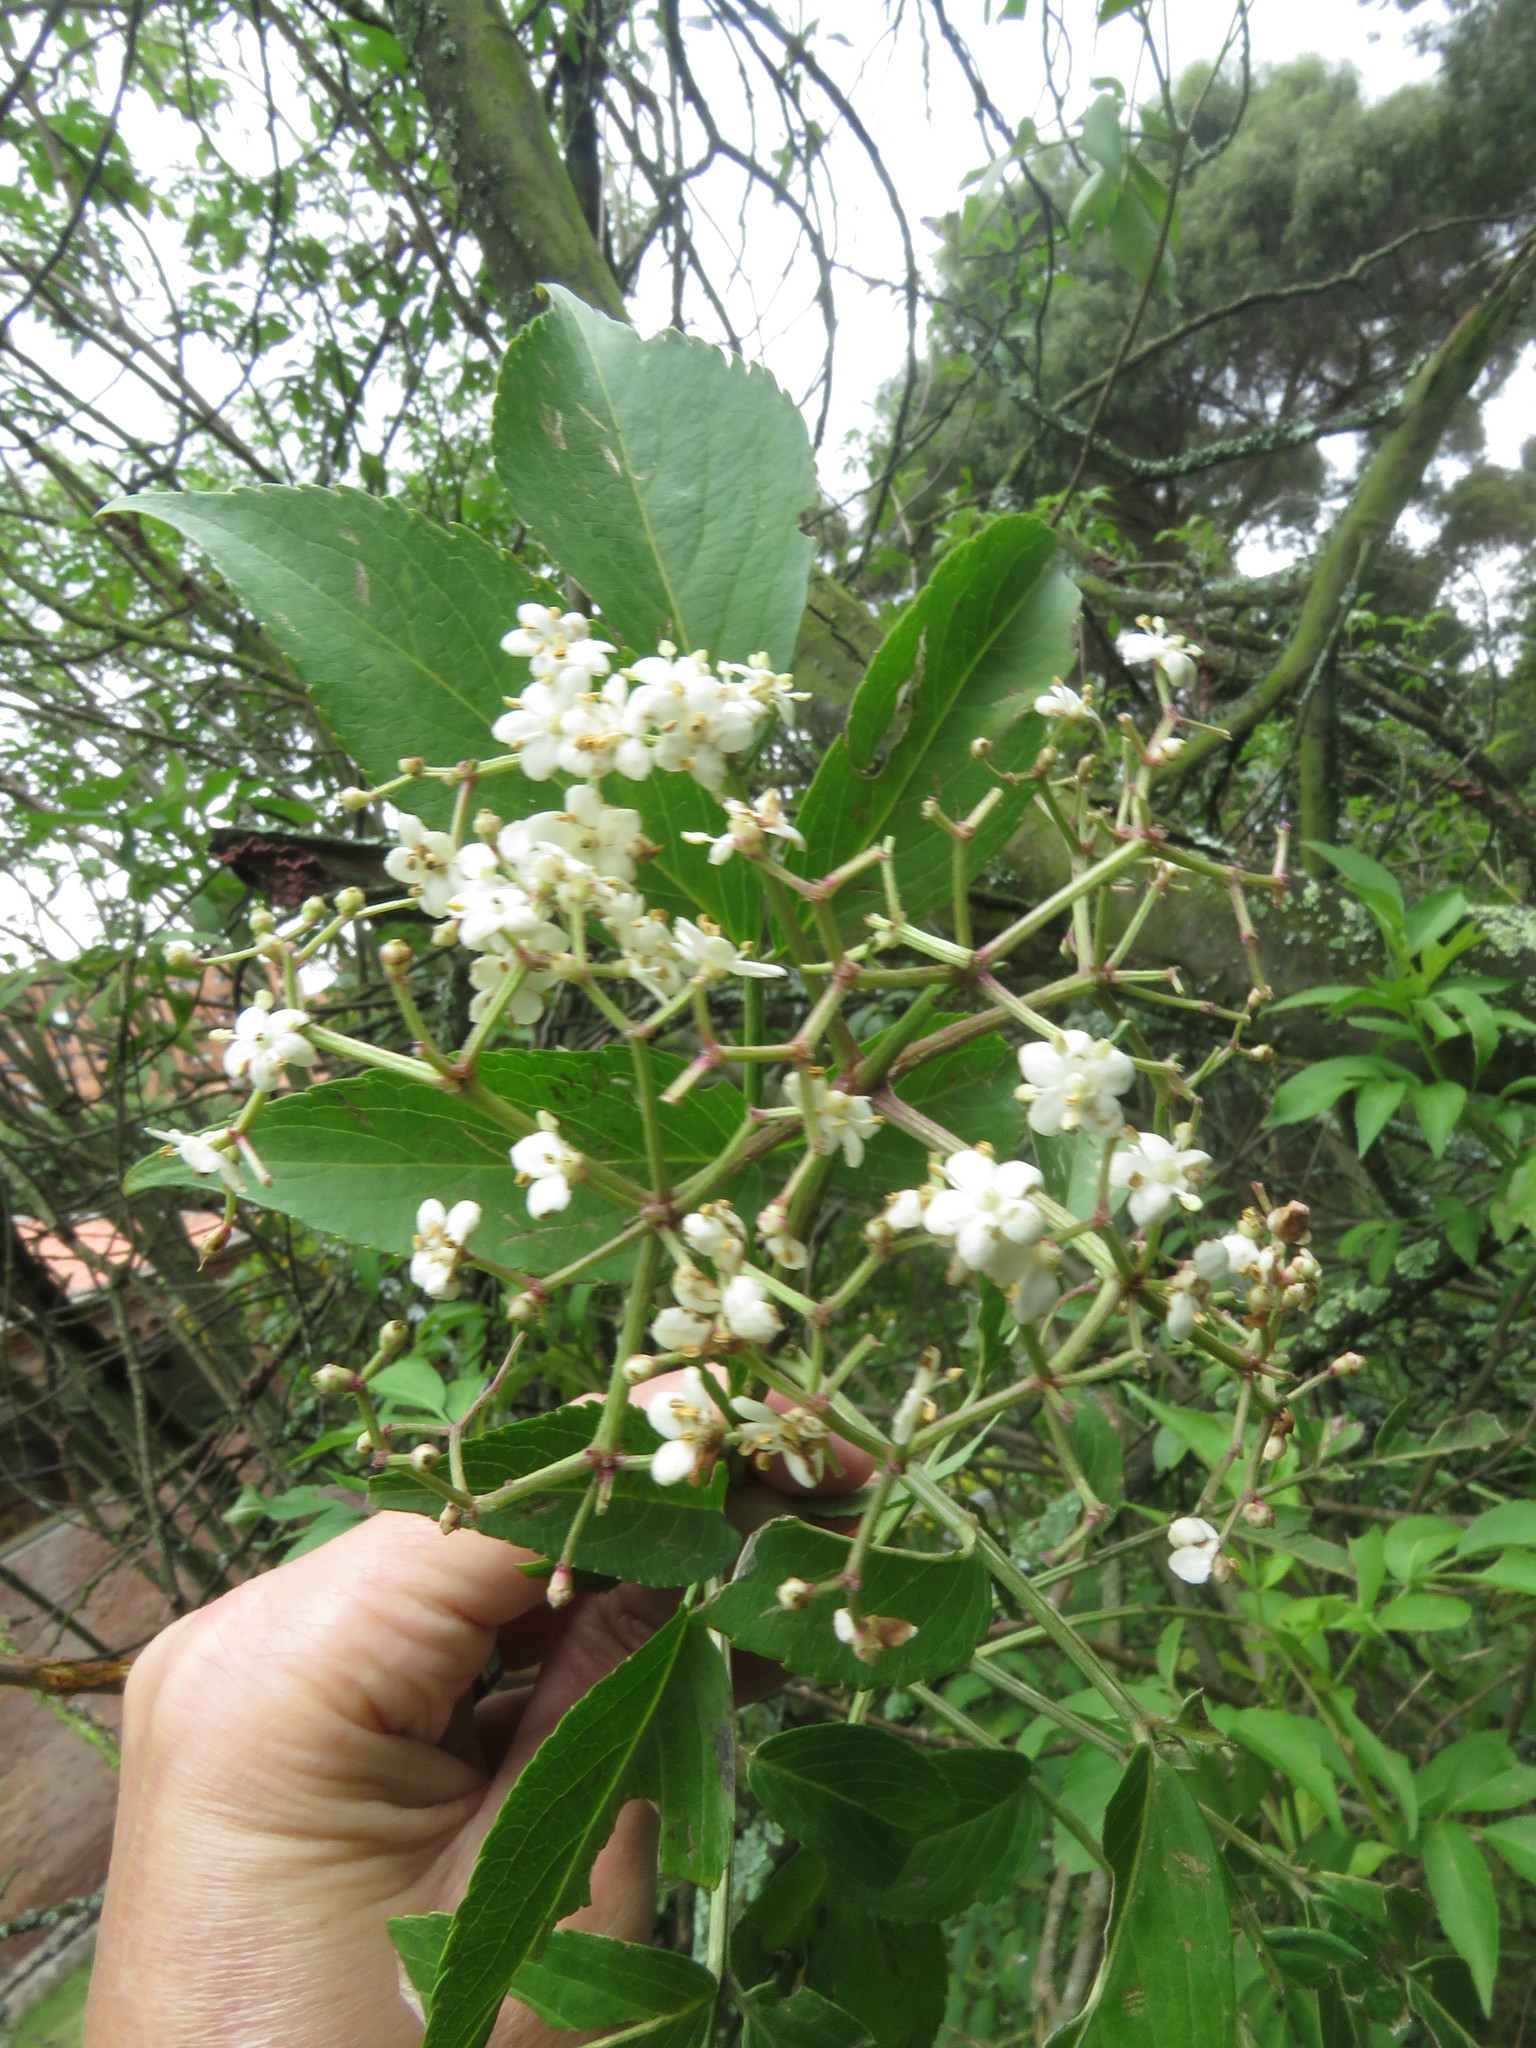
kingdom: Plantae
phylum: Tracheophyta
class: Magnoliopsida
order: Dipsacales
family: Viburnaceae
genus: Sambucus
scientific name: Sambucus nigra
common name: Elder
